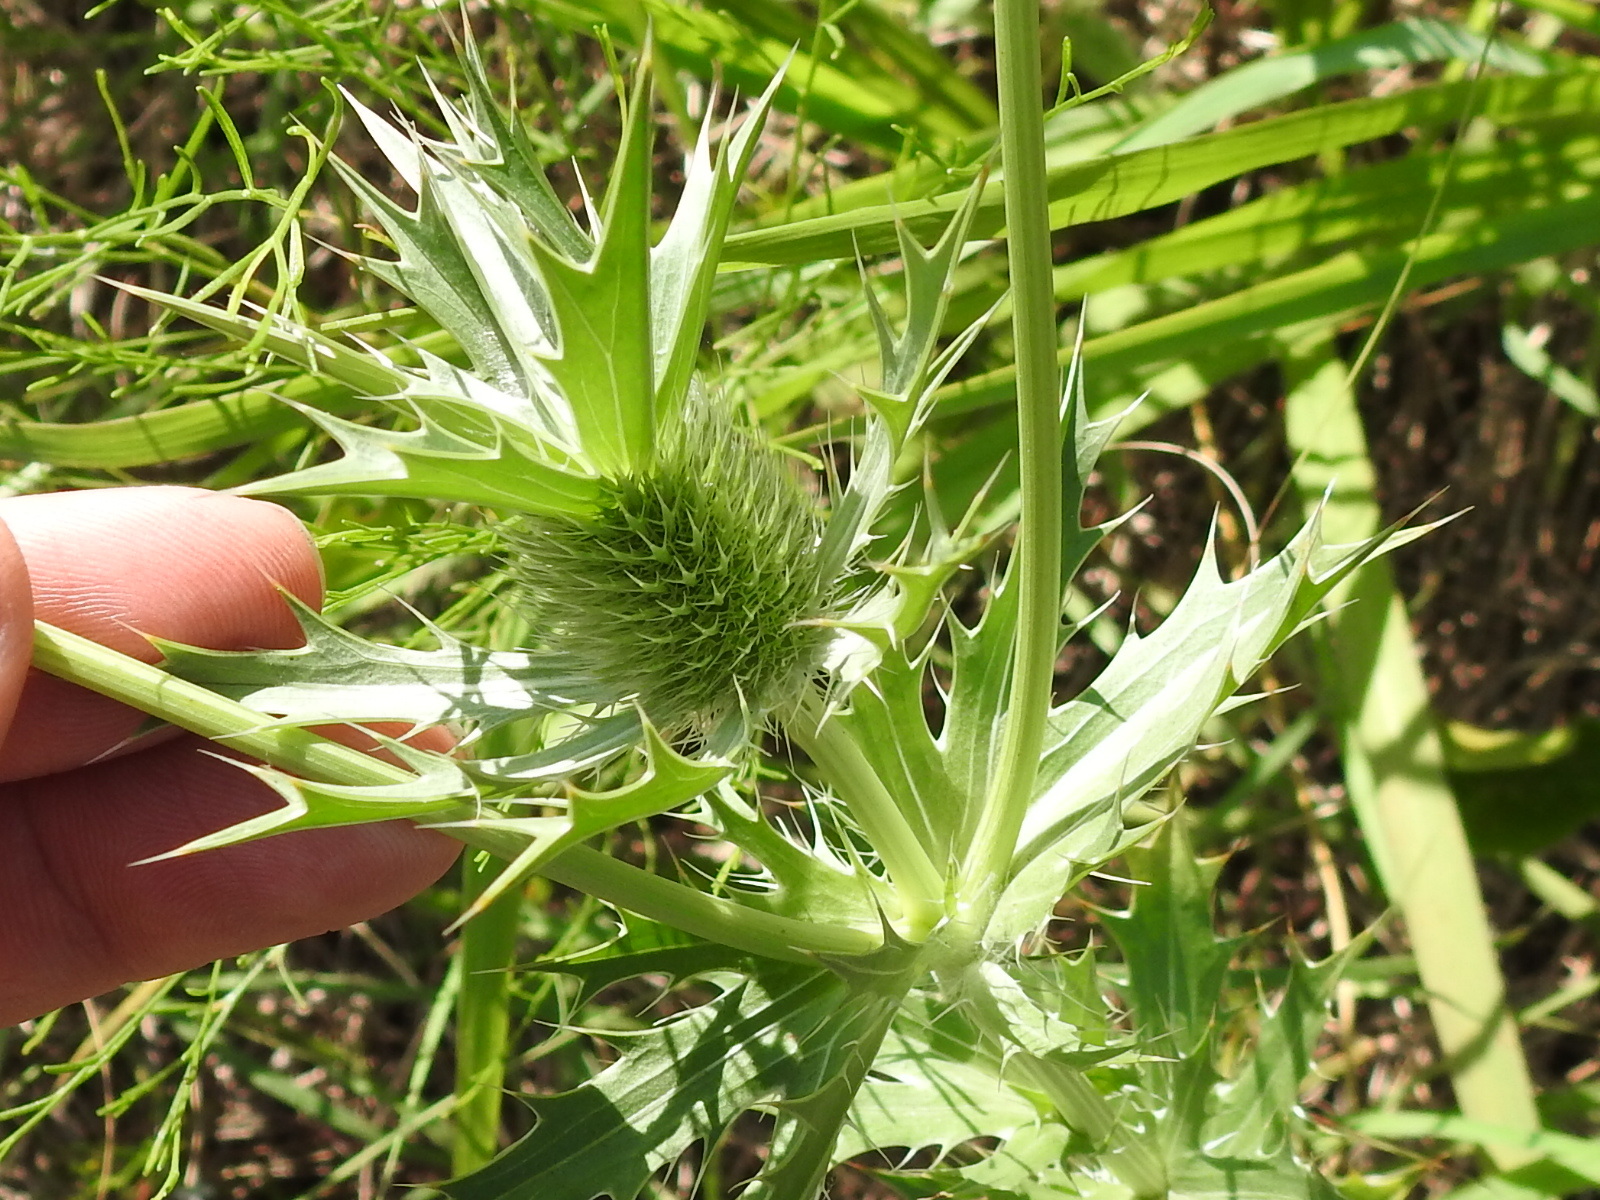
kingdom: Plantae
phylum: Tracheophyta
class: Magnoliopsida
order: Apiales
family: Apiaceae
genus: Eryngium
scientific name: Eryngium leavenworthii
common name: Leavenworth's eryngo
